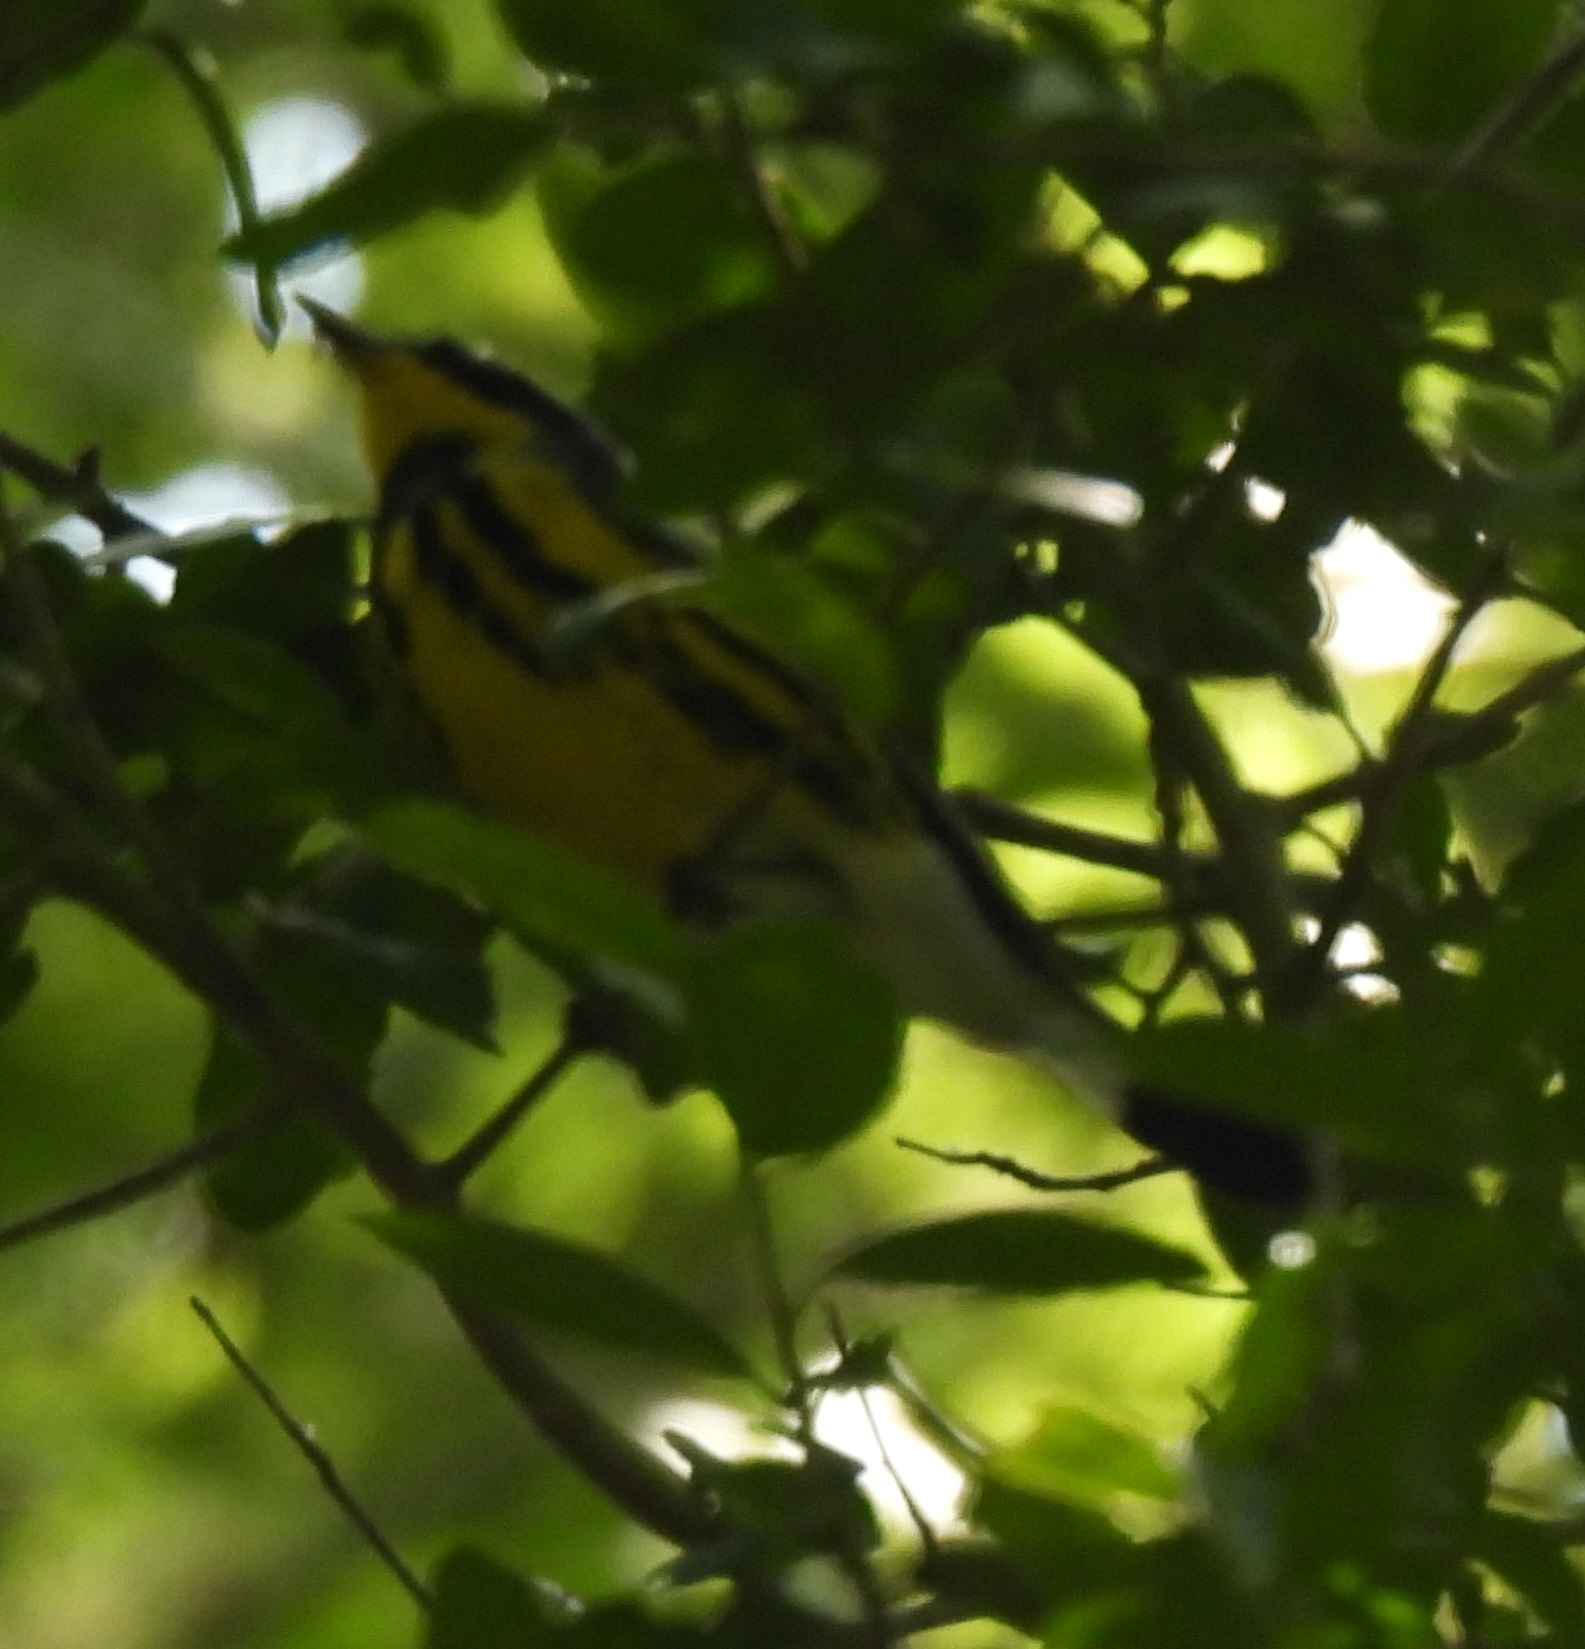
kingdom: Animalia
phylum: Chordata
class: Aves
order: Passeriformes
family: Parulidae
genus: Setophaga
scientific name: Setophaga magnolia
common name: Magnolia warbler
